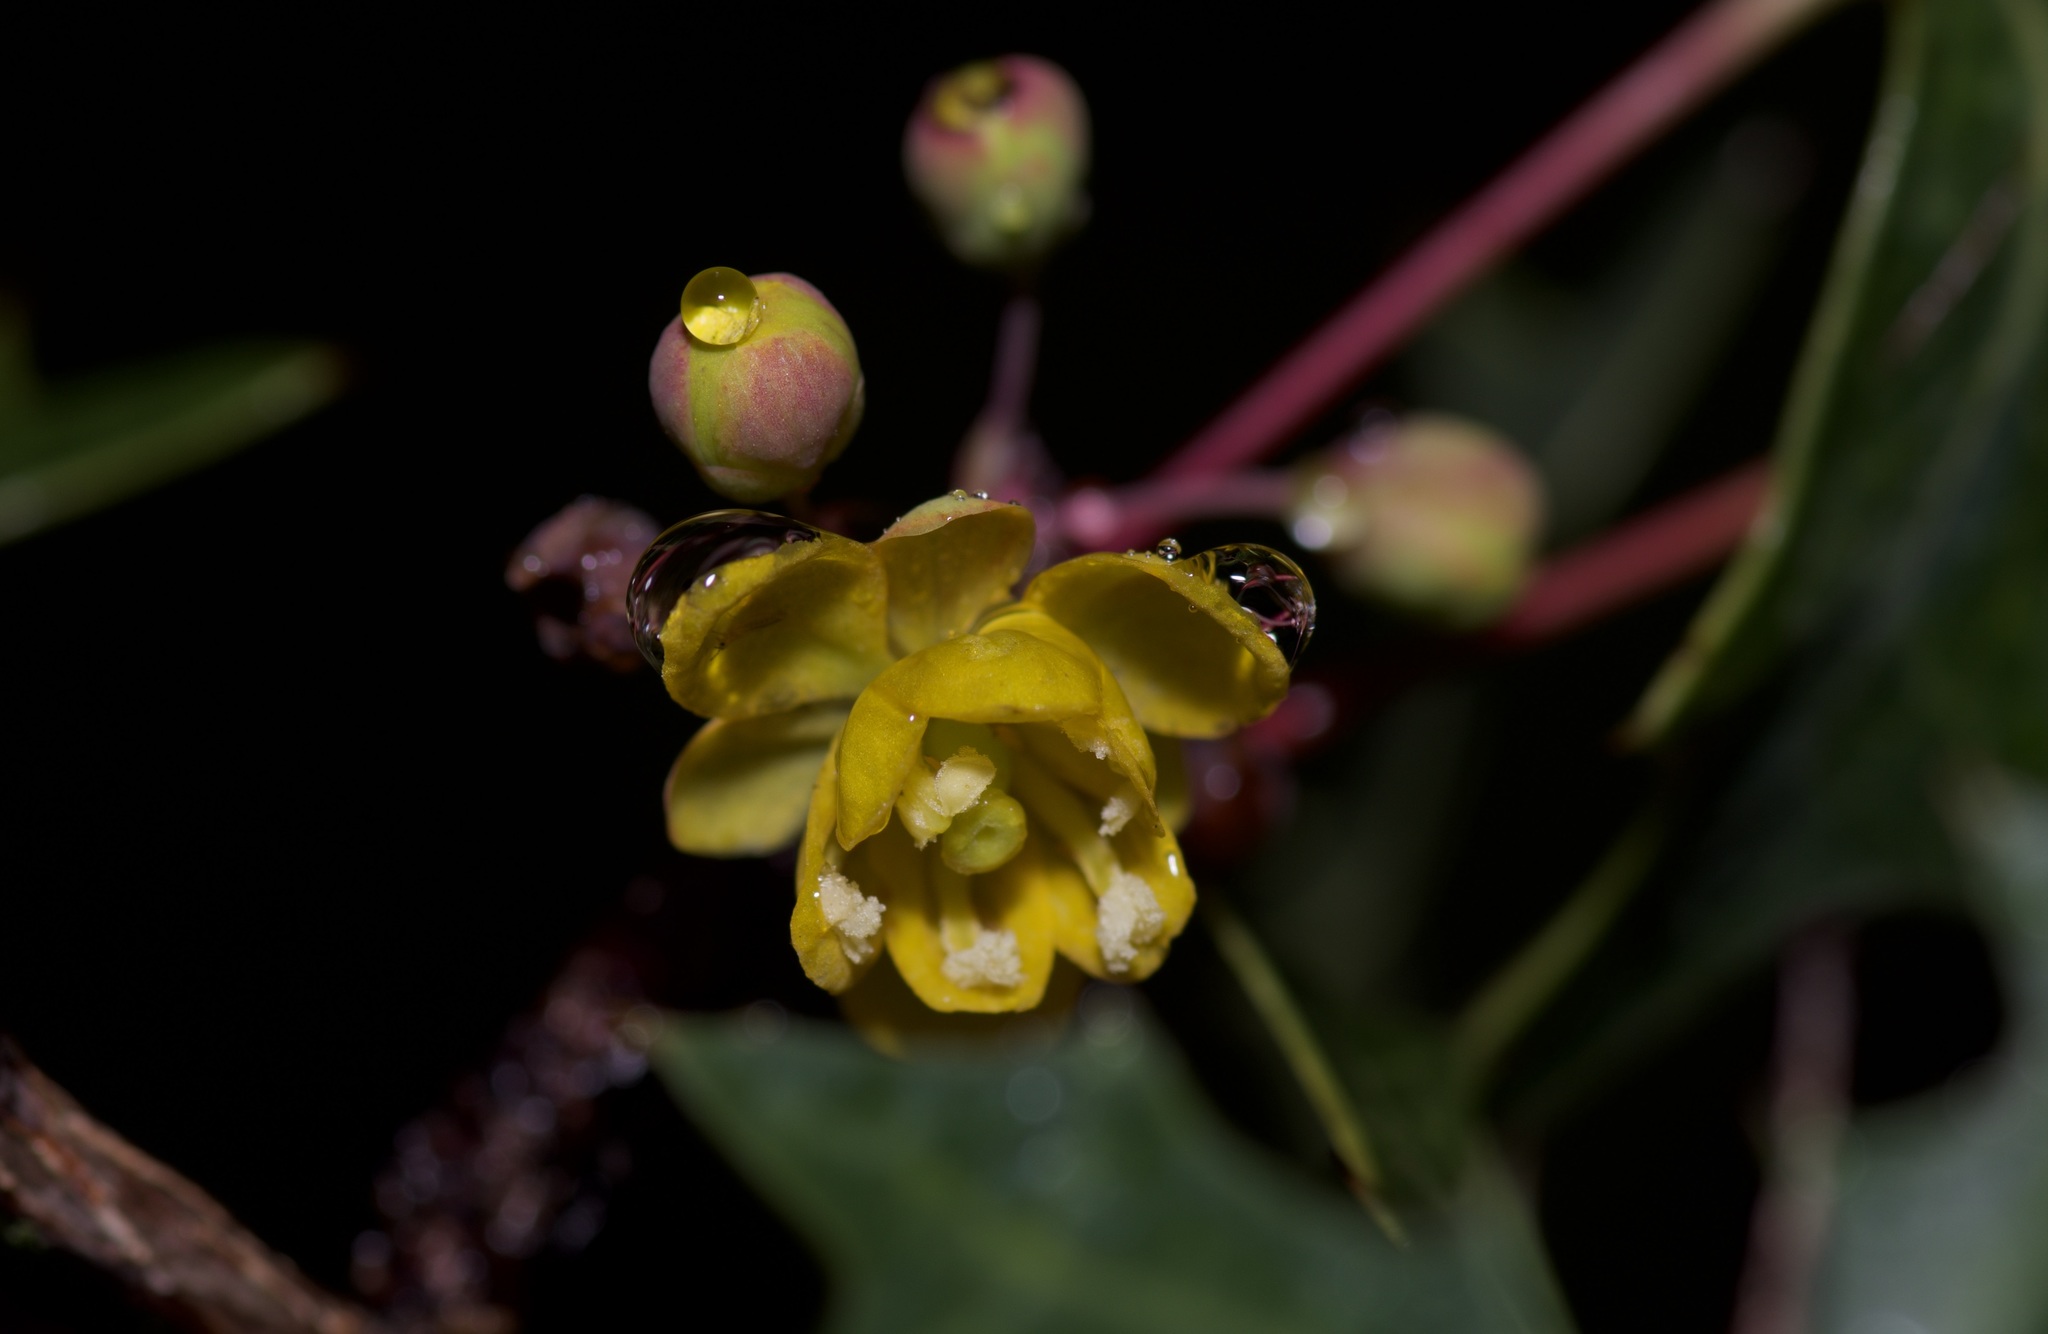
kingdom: Plantae
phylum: Tracheophyta
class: Magnoliopsida
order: Ranunculales
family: Berberidaceae
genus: Alloberberis
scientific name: Alloberberis trifoliolata
